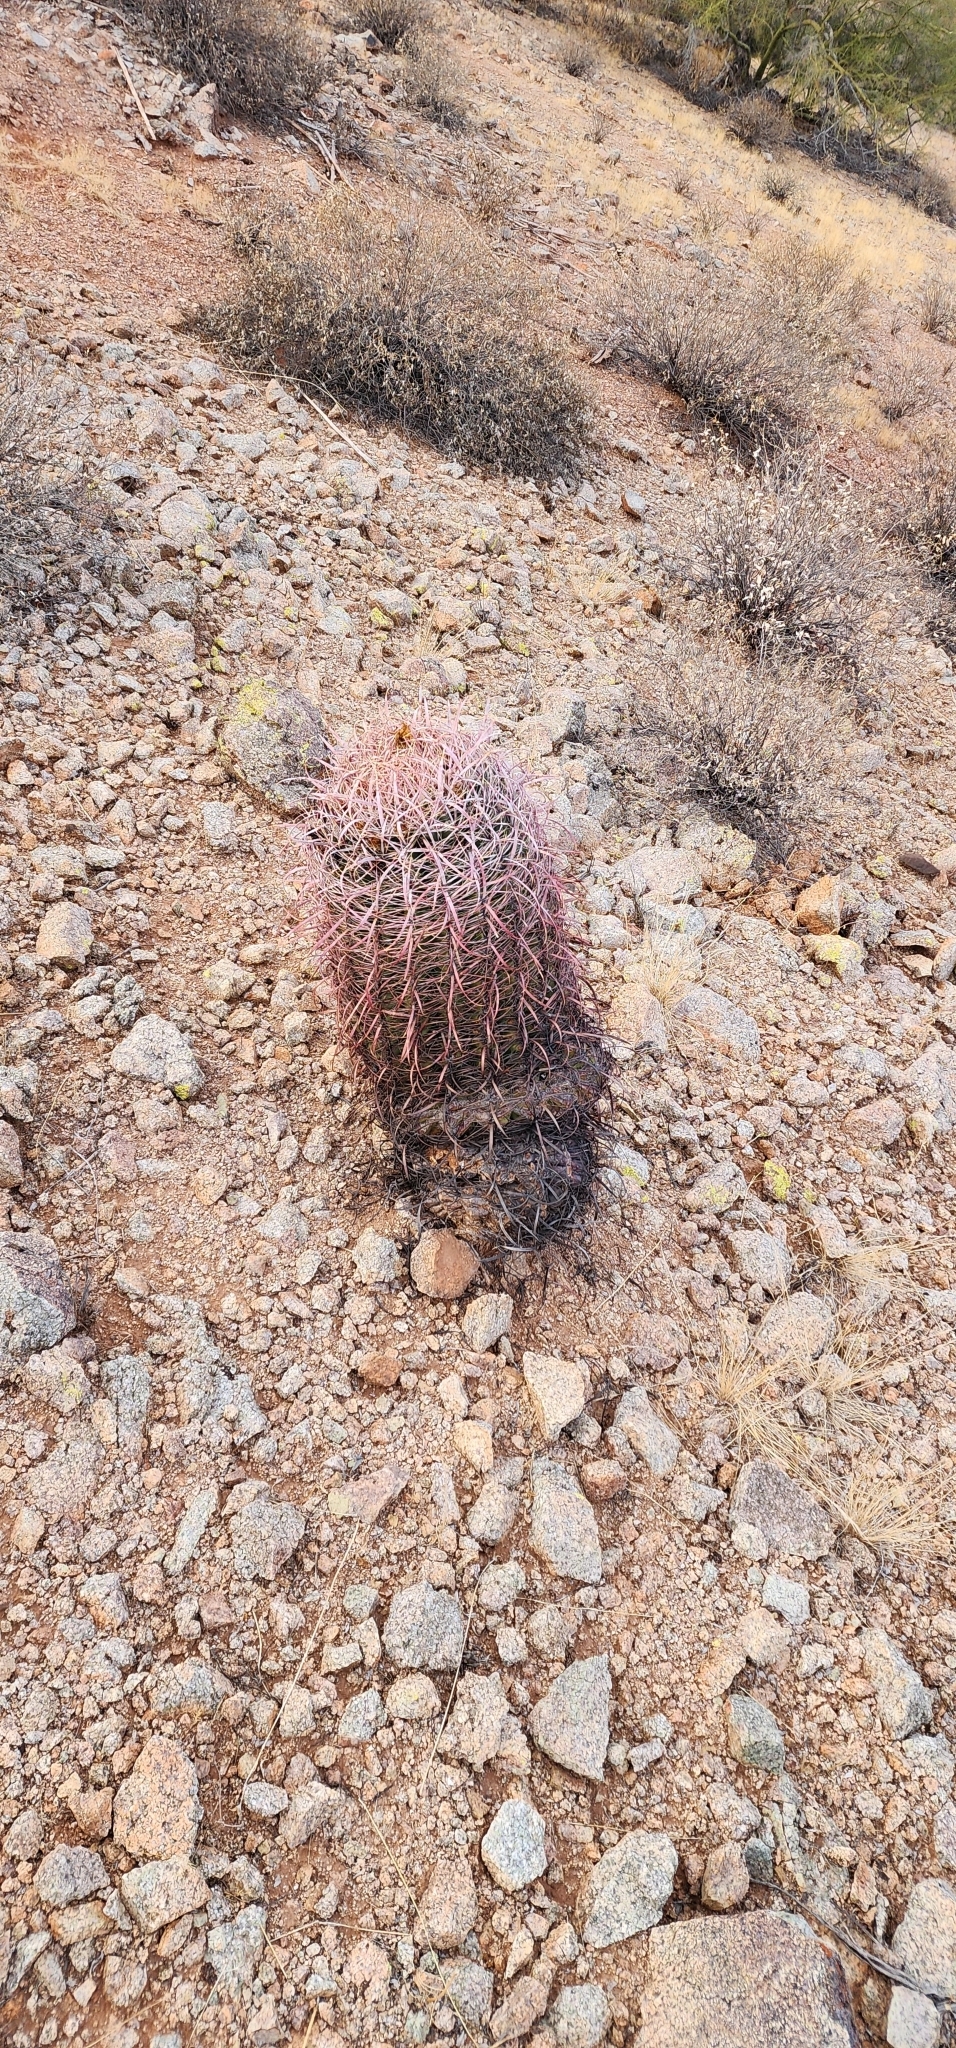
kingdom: Plantae
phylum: Tracheophyta
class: Magnoliopsida
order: Caryophyllales
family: Cactaceae
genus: Ferocactus
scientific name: Ferocactus cylindraceus
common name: California barrel cactus
